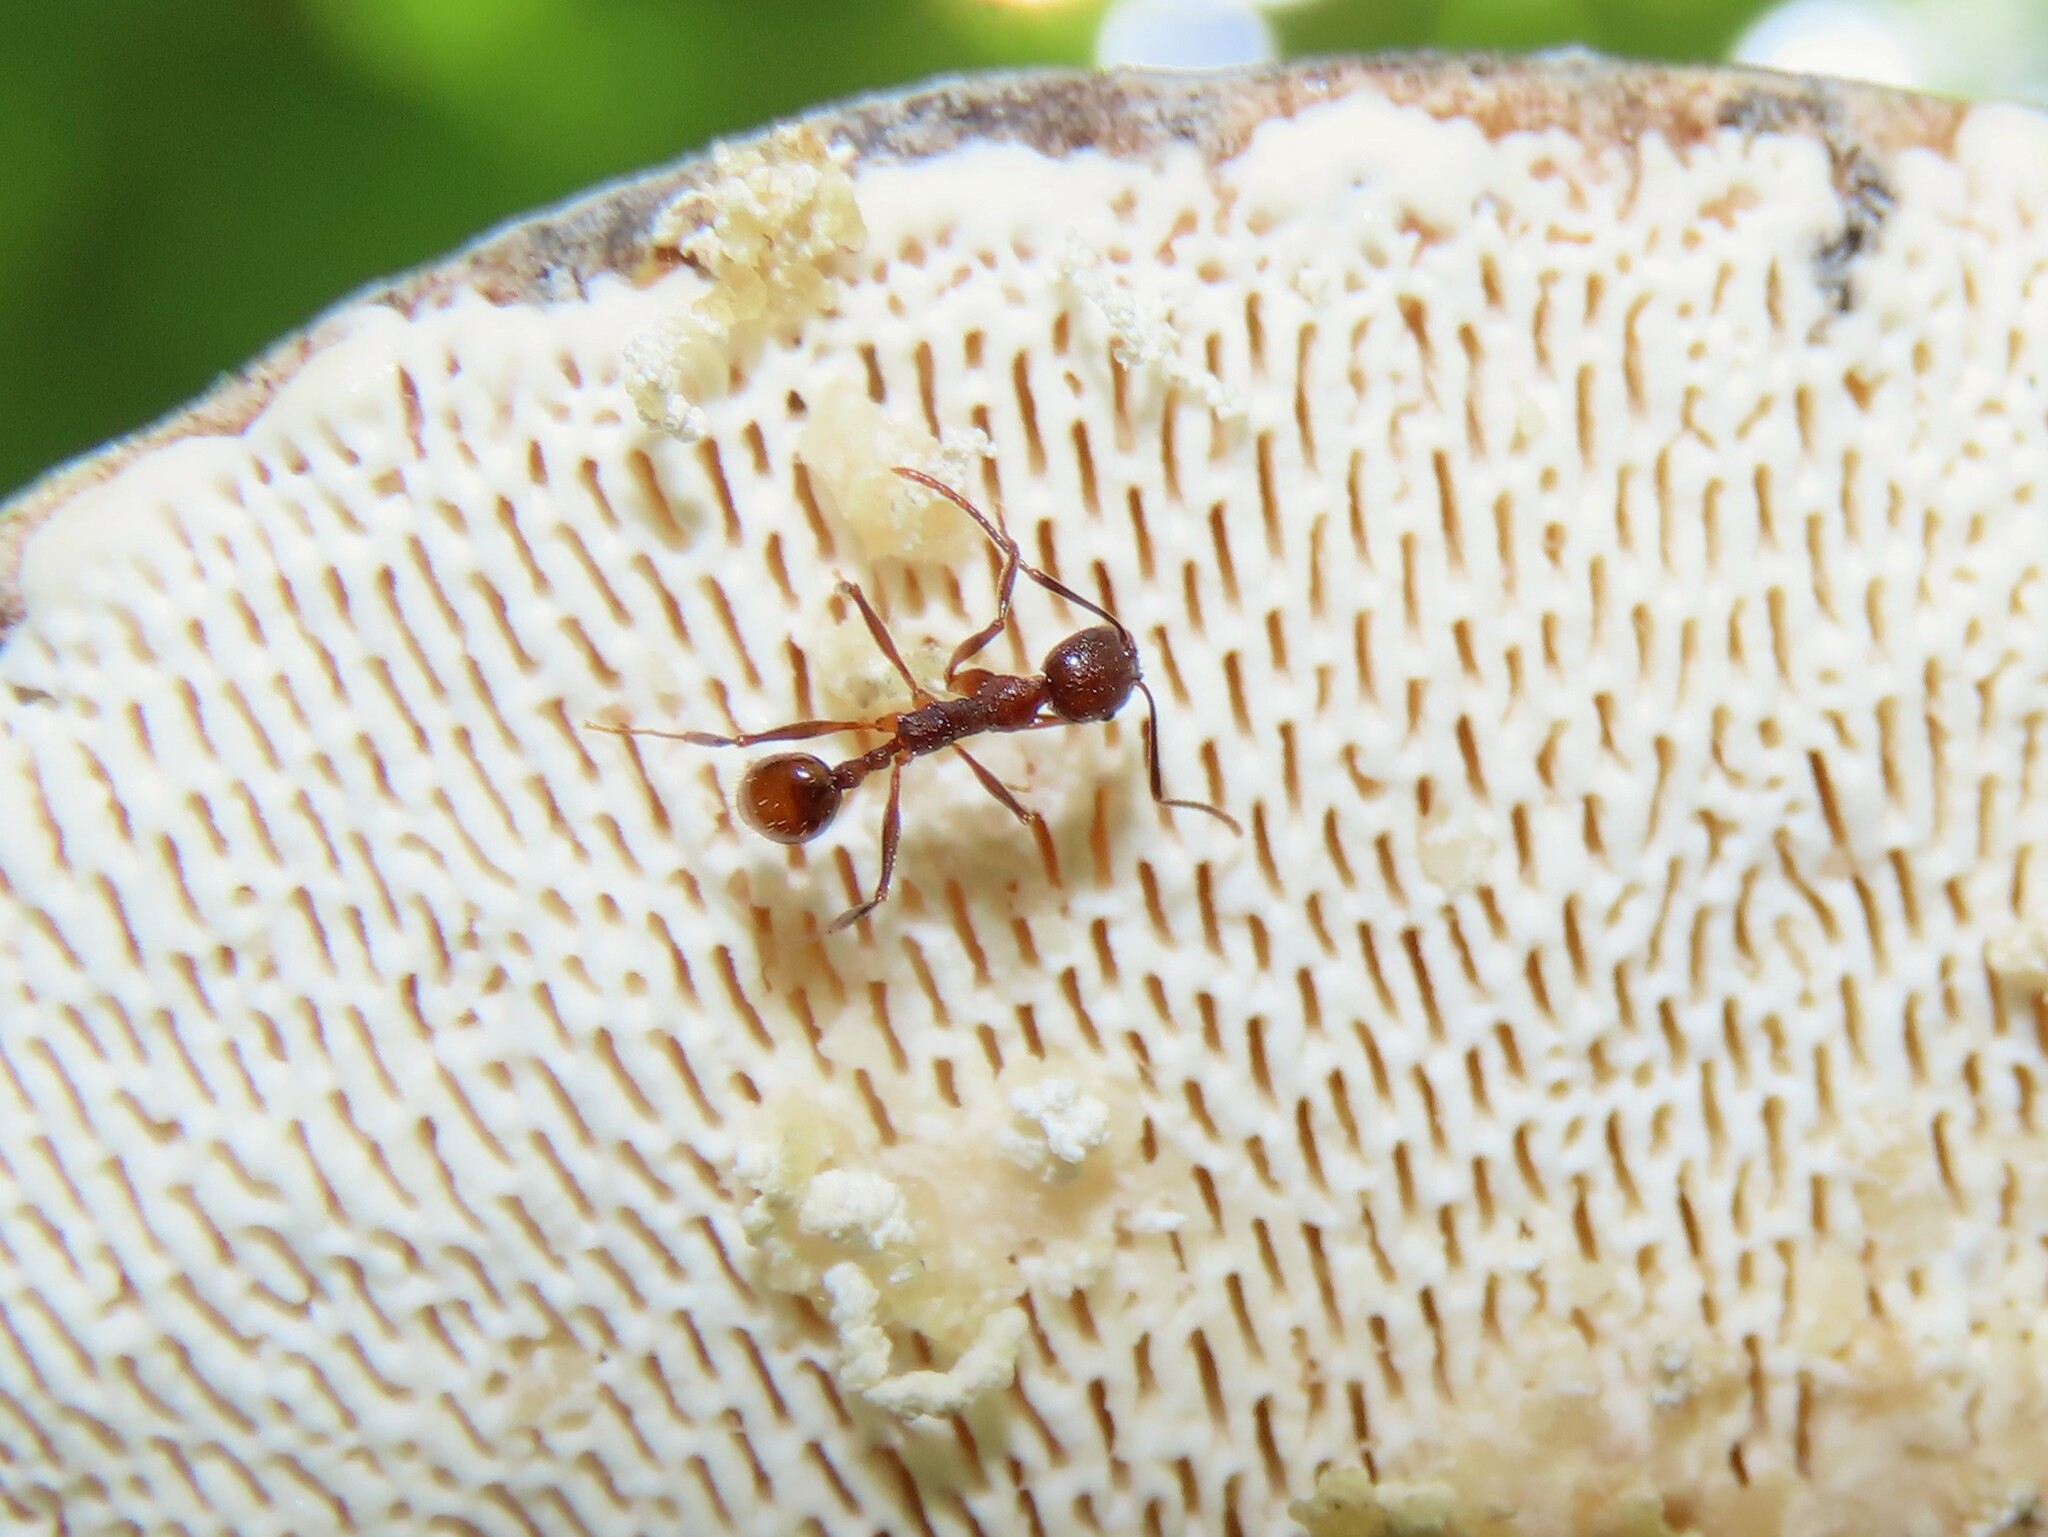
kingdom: Animalia
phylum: Arthropoda
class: Insecta
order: Hymenoptera
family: Formicidae
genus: Aphaenogaster
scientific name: Aphaenogaster fulva
